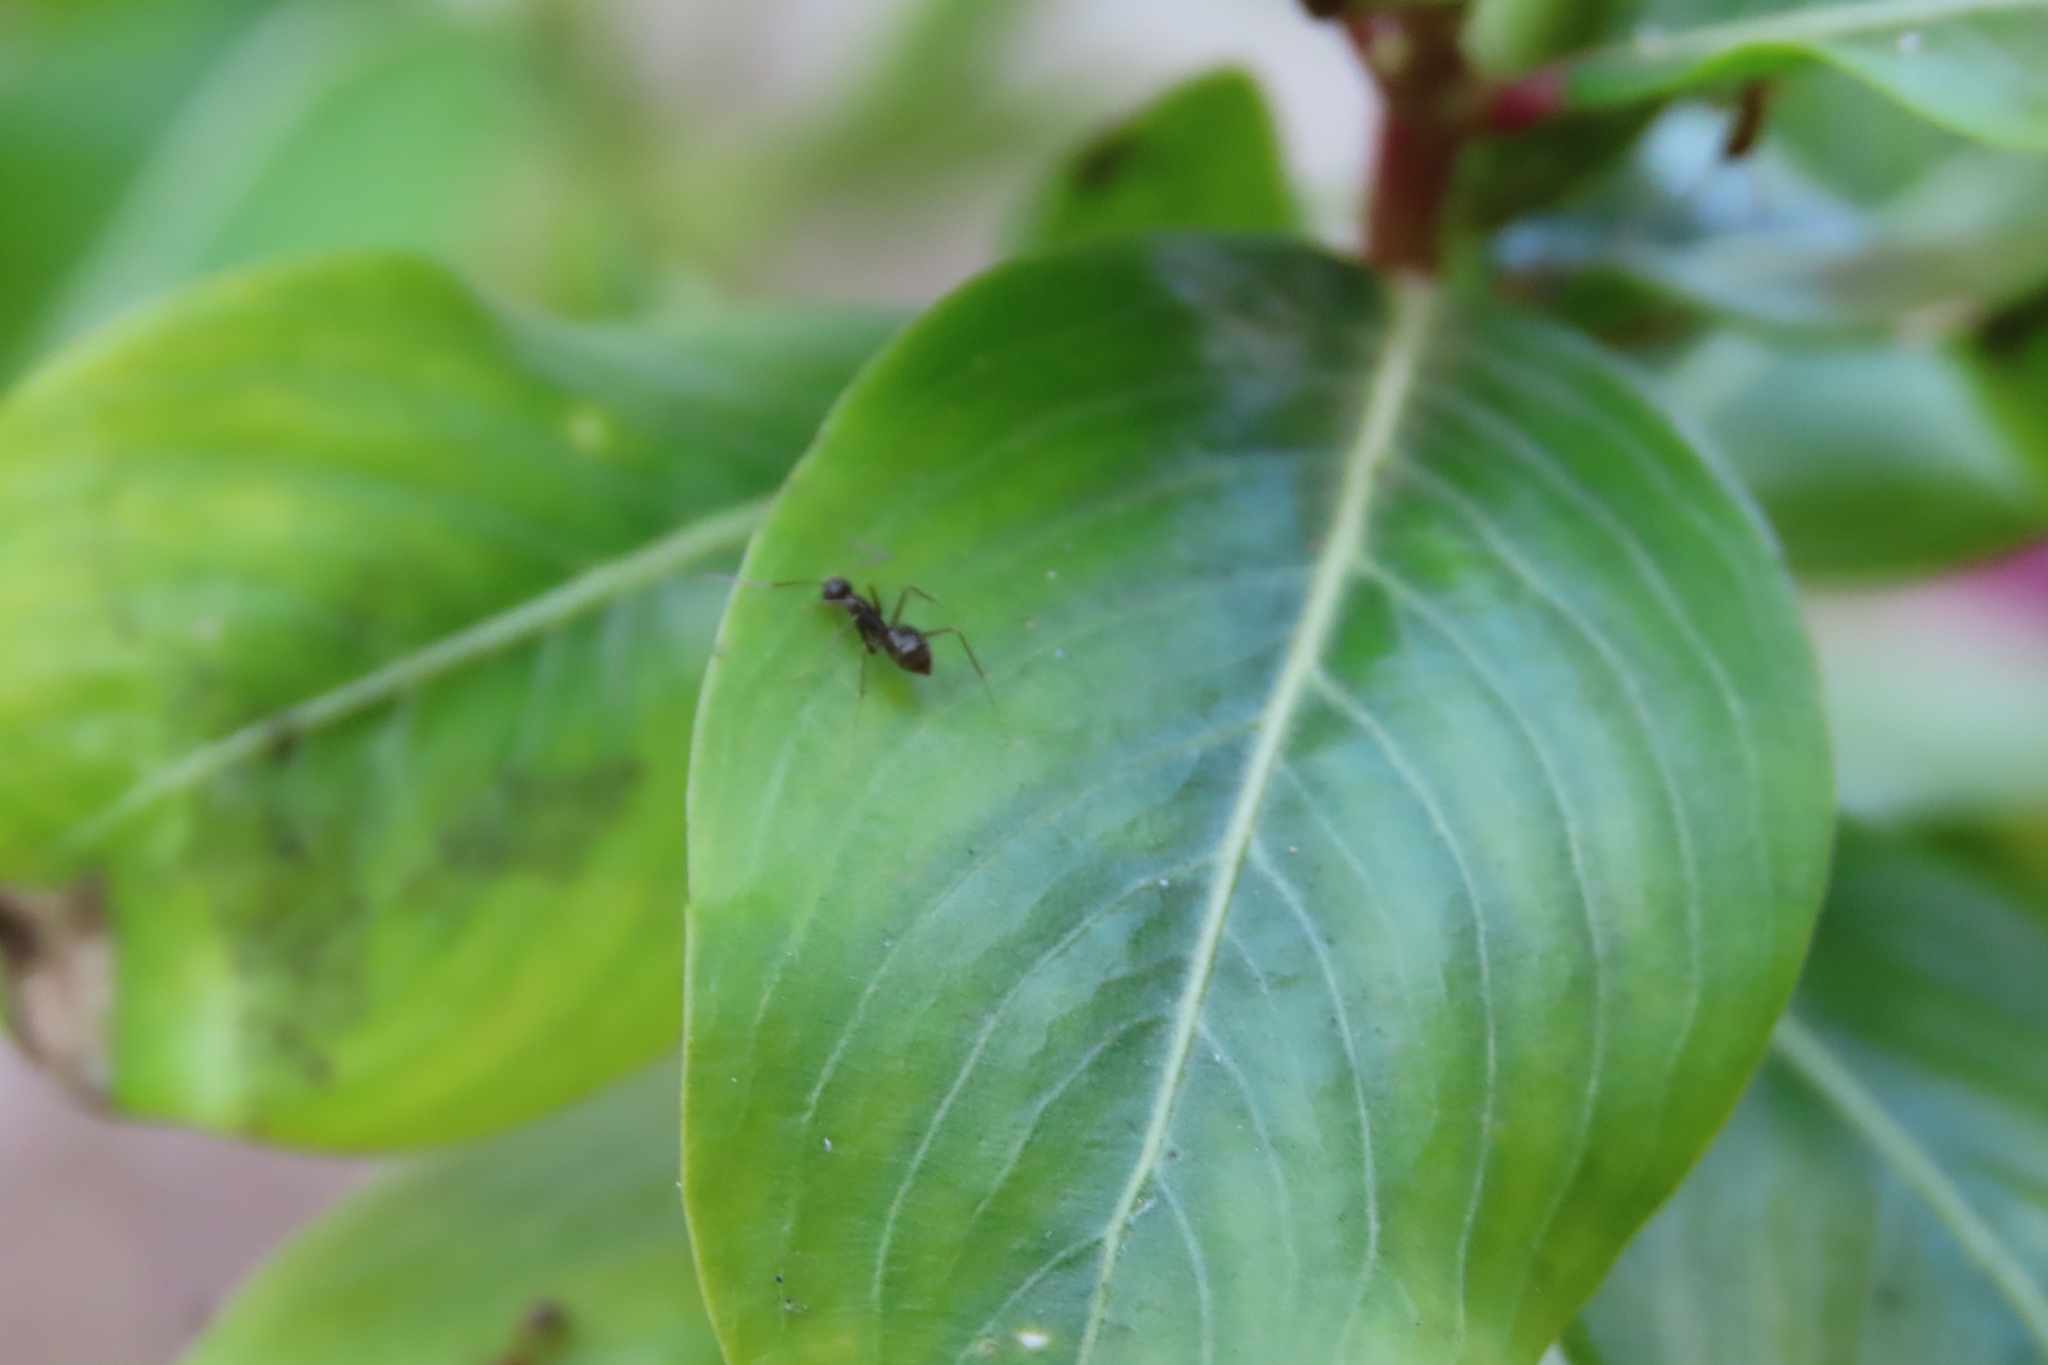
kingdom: Animalia
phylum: Arthropoda
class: Insecta
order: Hymenoptera
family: Formicidae
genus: Paratrechina
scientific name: Paratrechina longicornis
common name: Longhorned crazy ant
